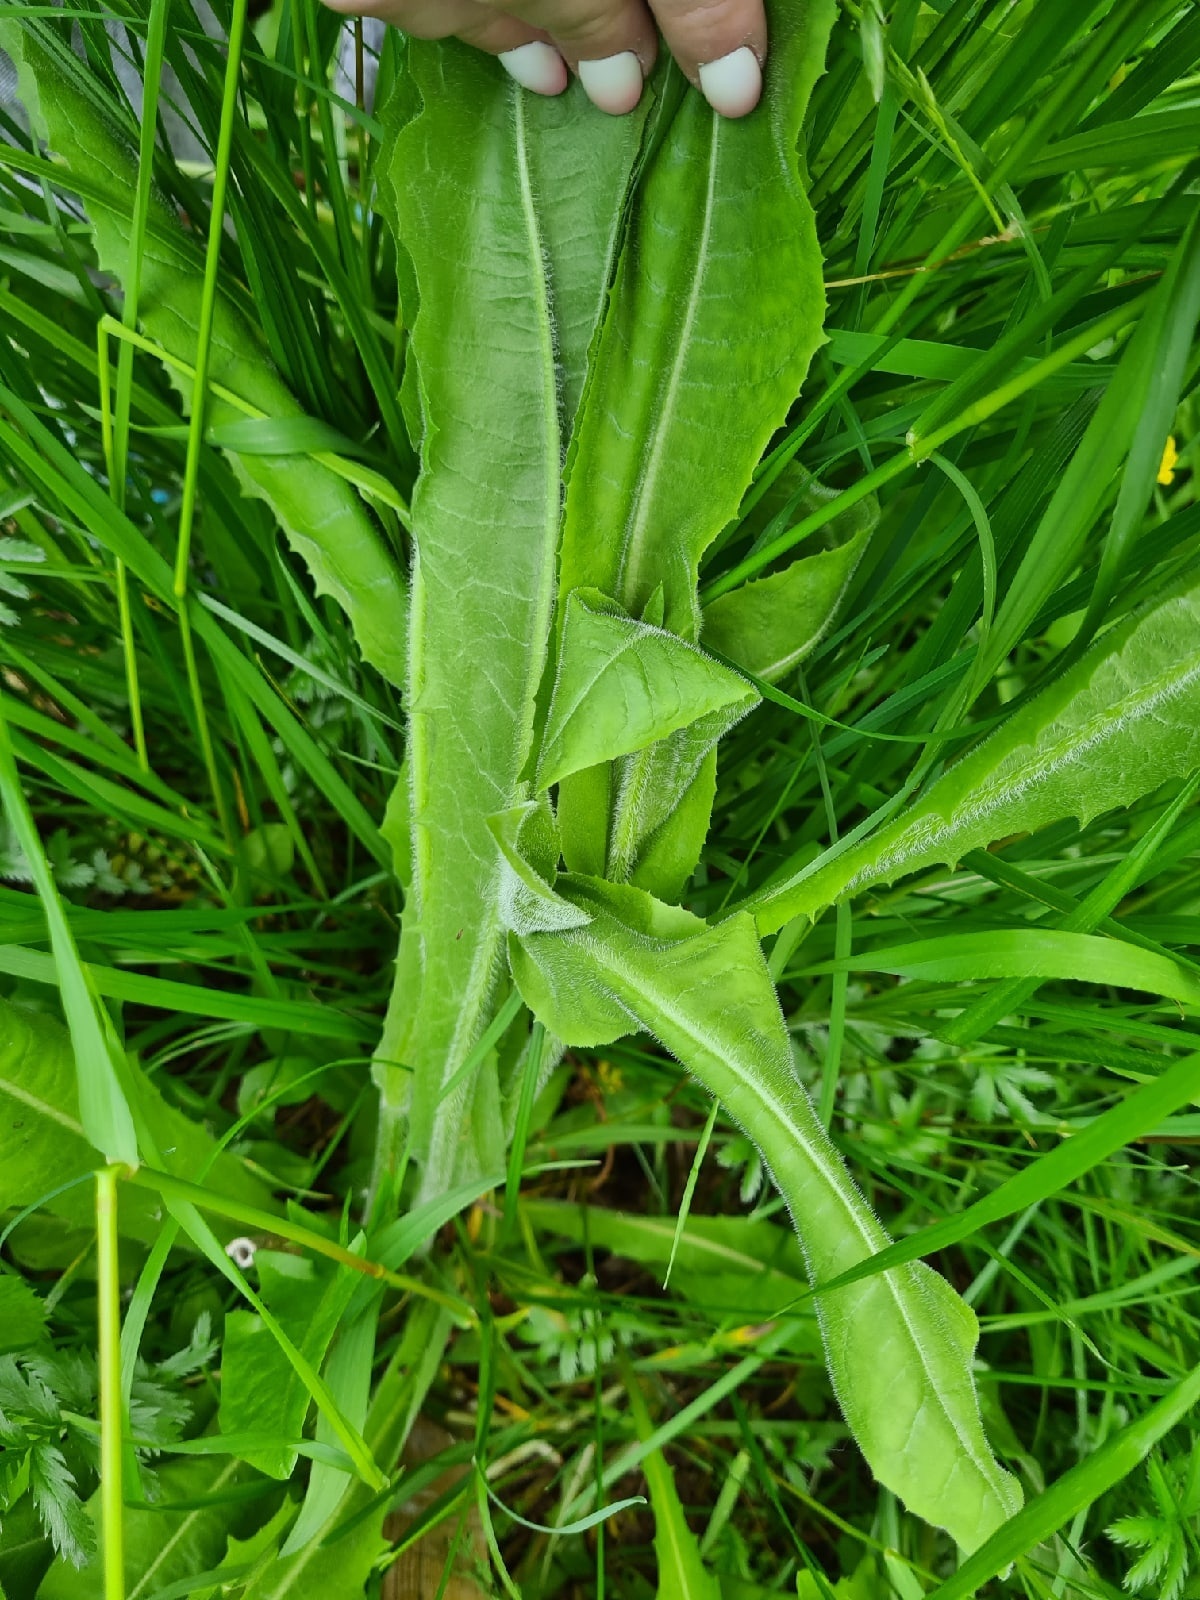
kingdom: Plantae
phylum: Tracheophyta
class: Magnoliopsida
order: Asterales
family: Asteraceae
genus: Cichorium
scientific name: Cichorium intybus
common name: Chicory
